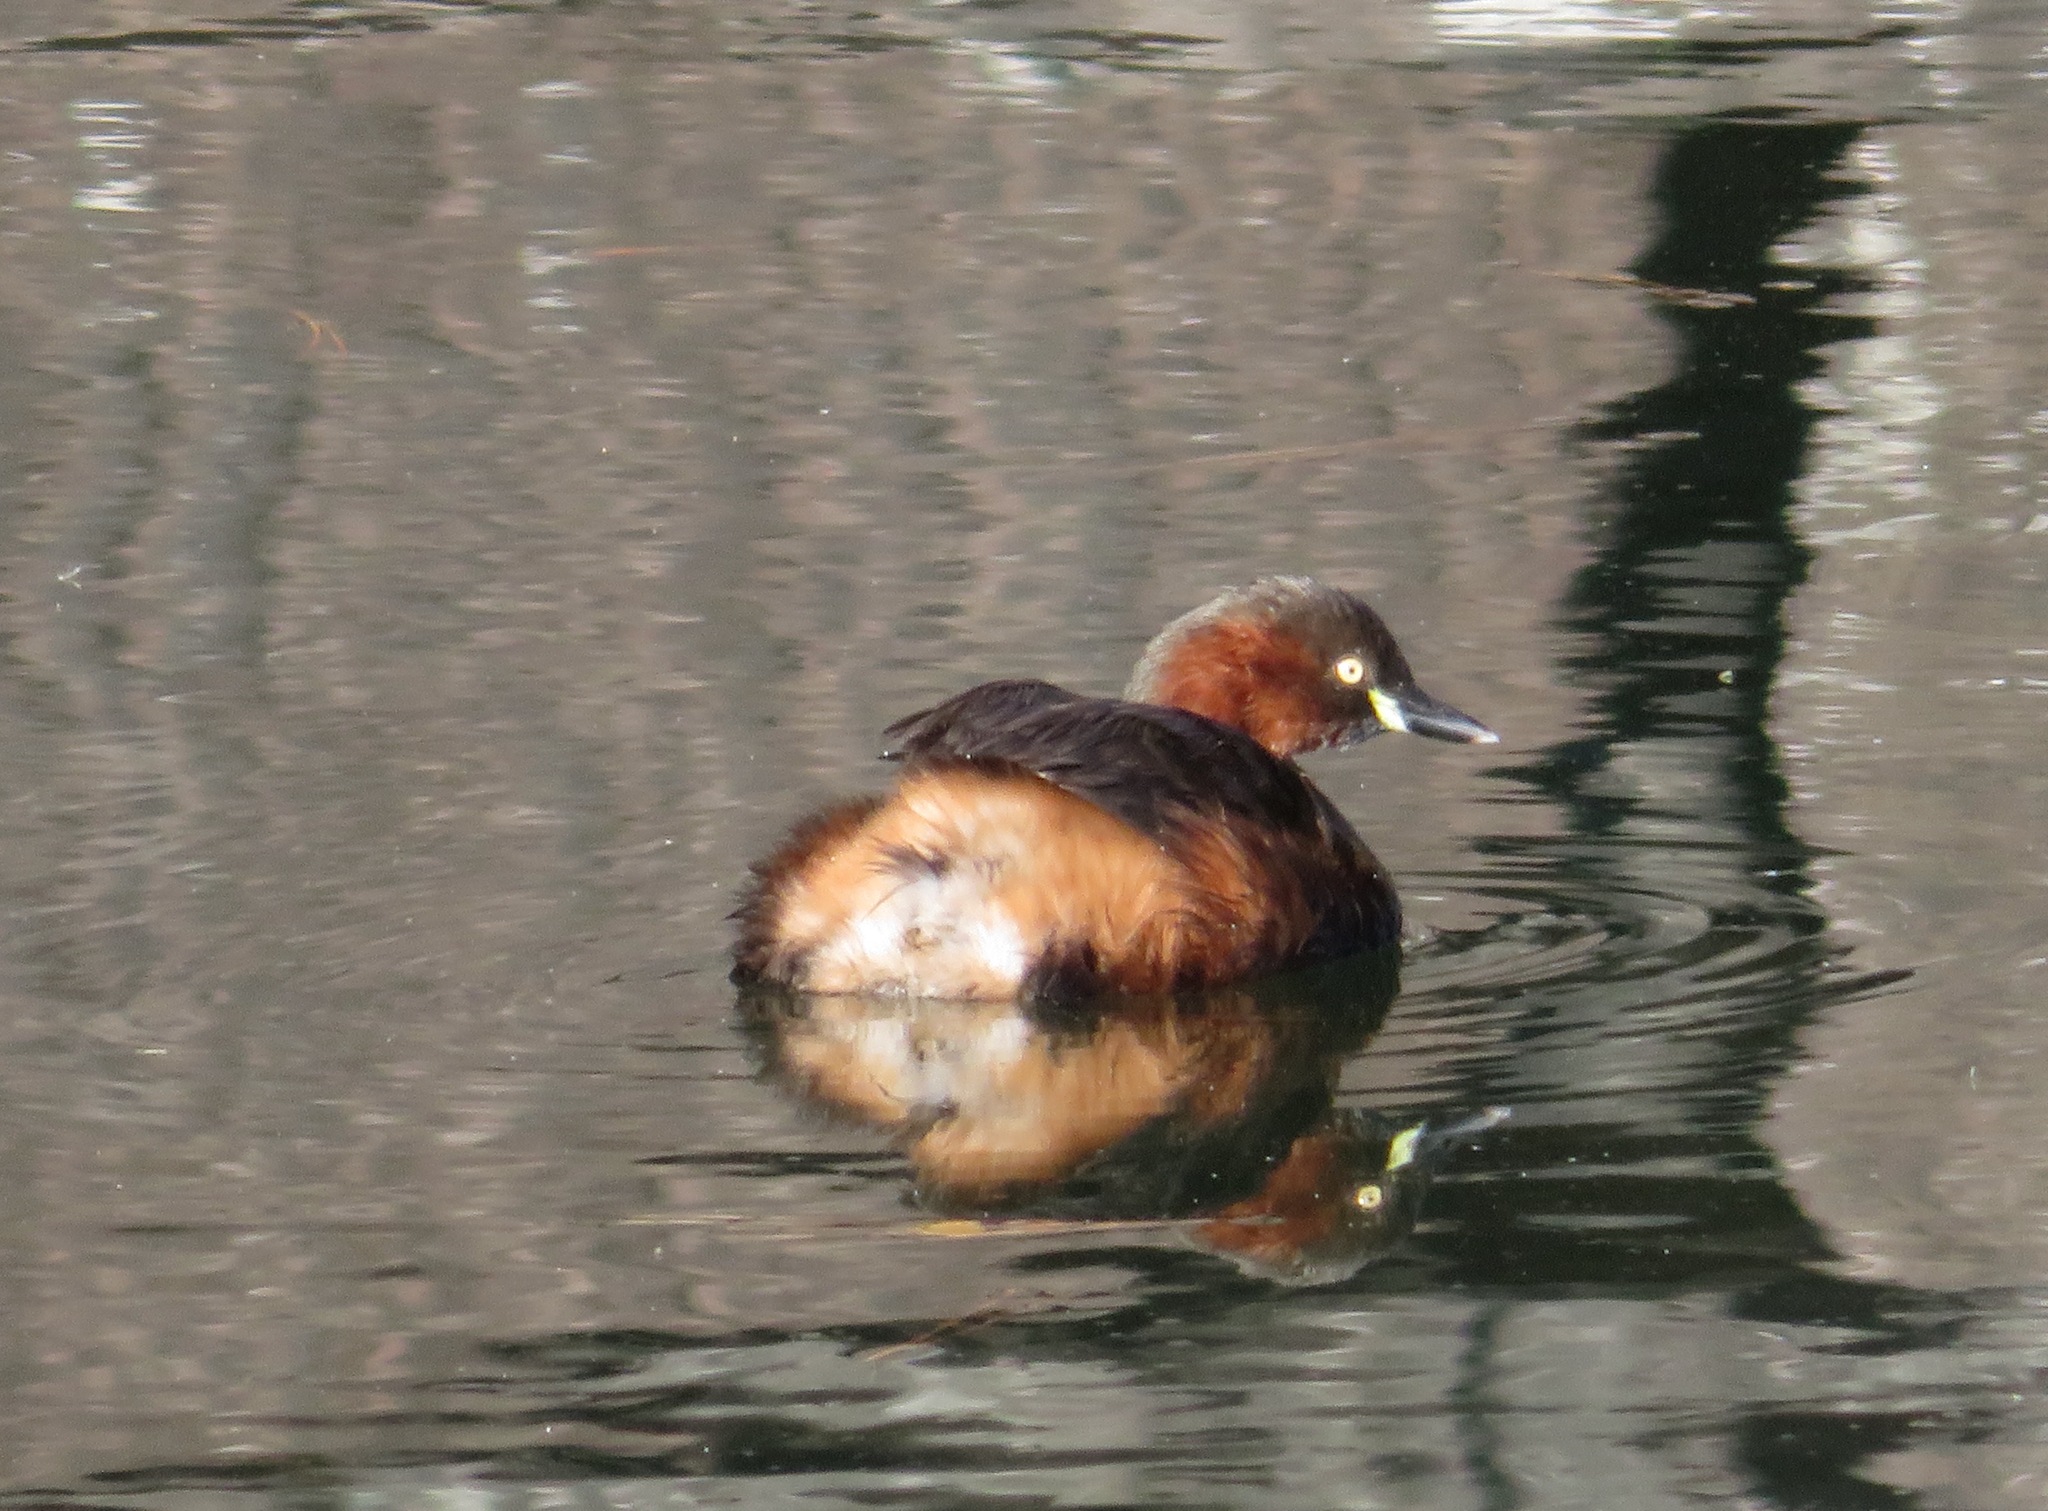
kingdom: Animalia
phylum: Chordata
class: Aves
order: Podicipediformes
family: Podicipedidae
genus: Tachybaptus
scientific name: Tachybaptus ruficollis
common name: Little grebe
